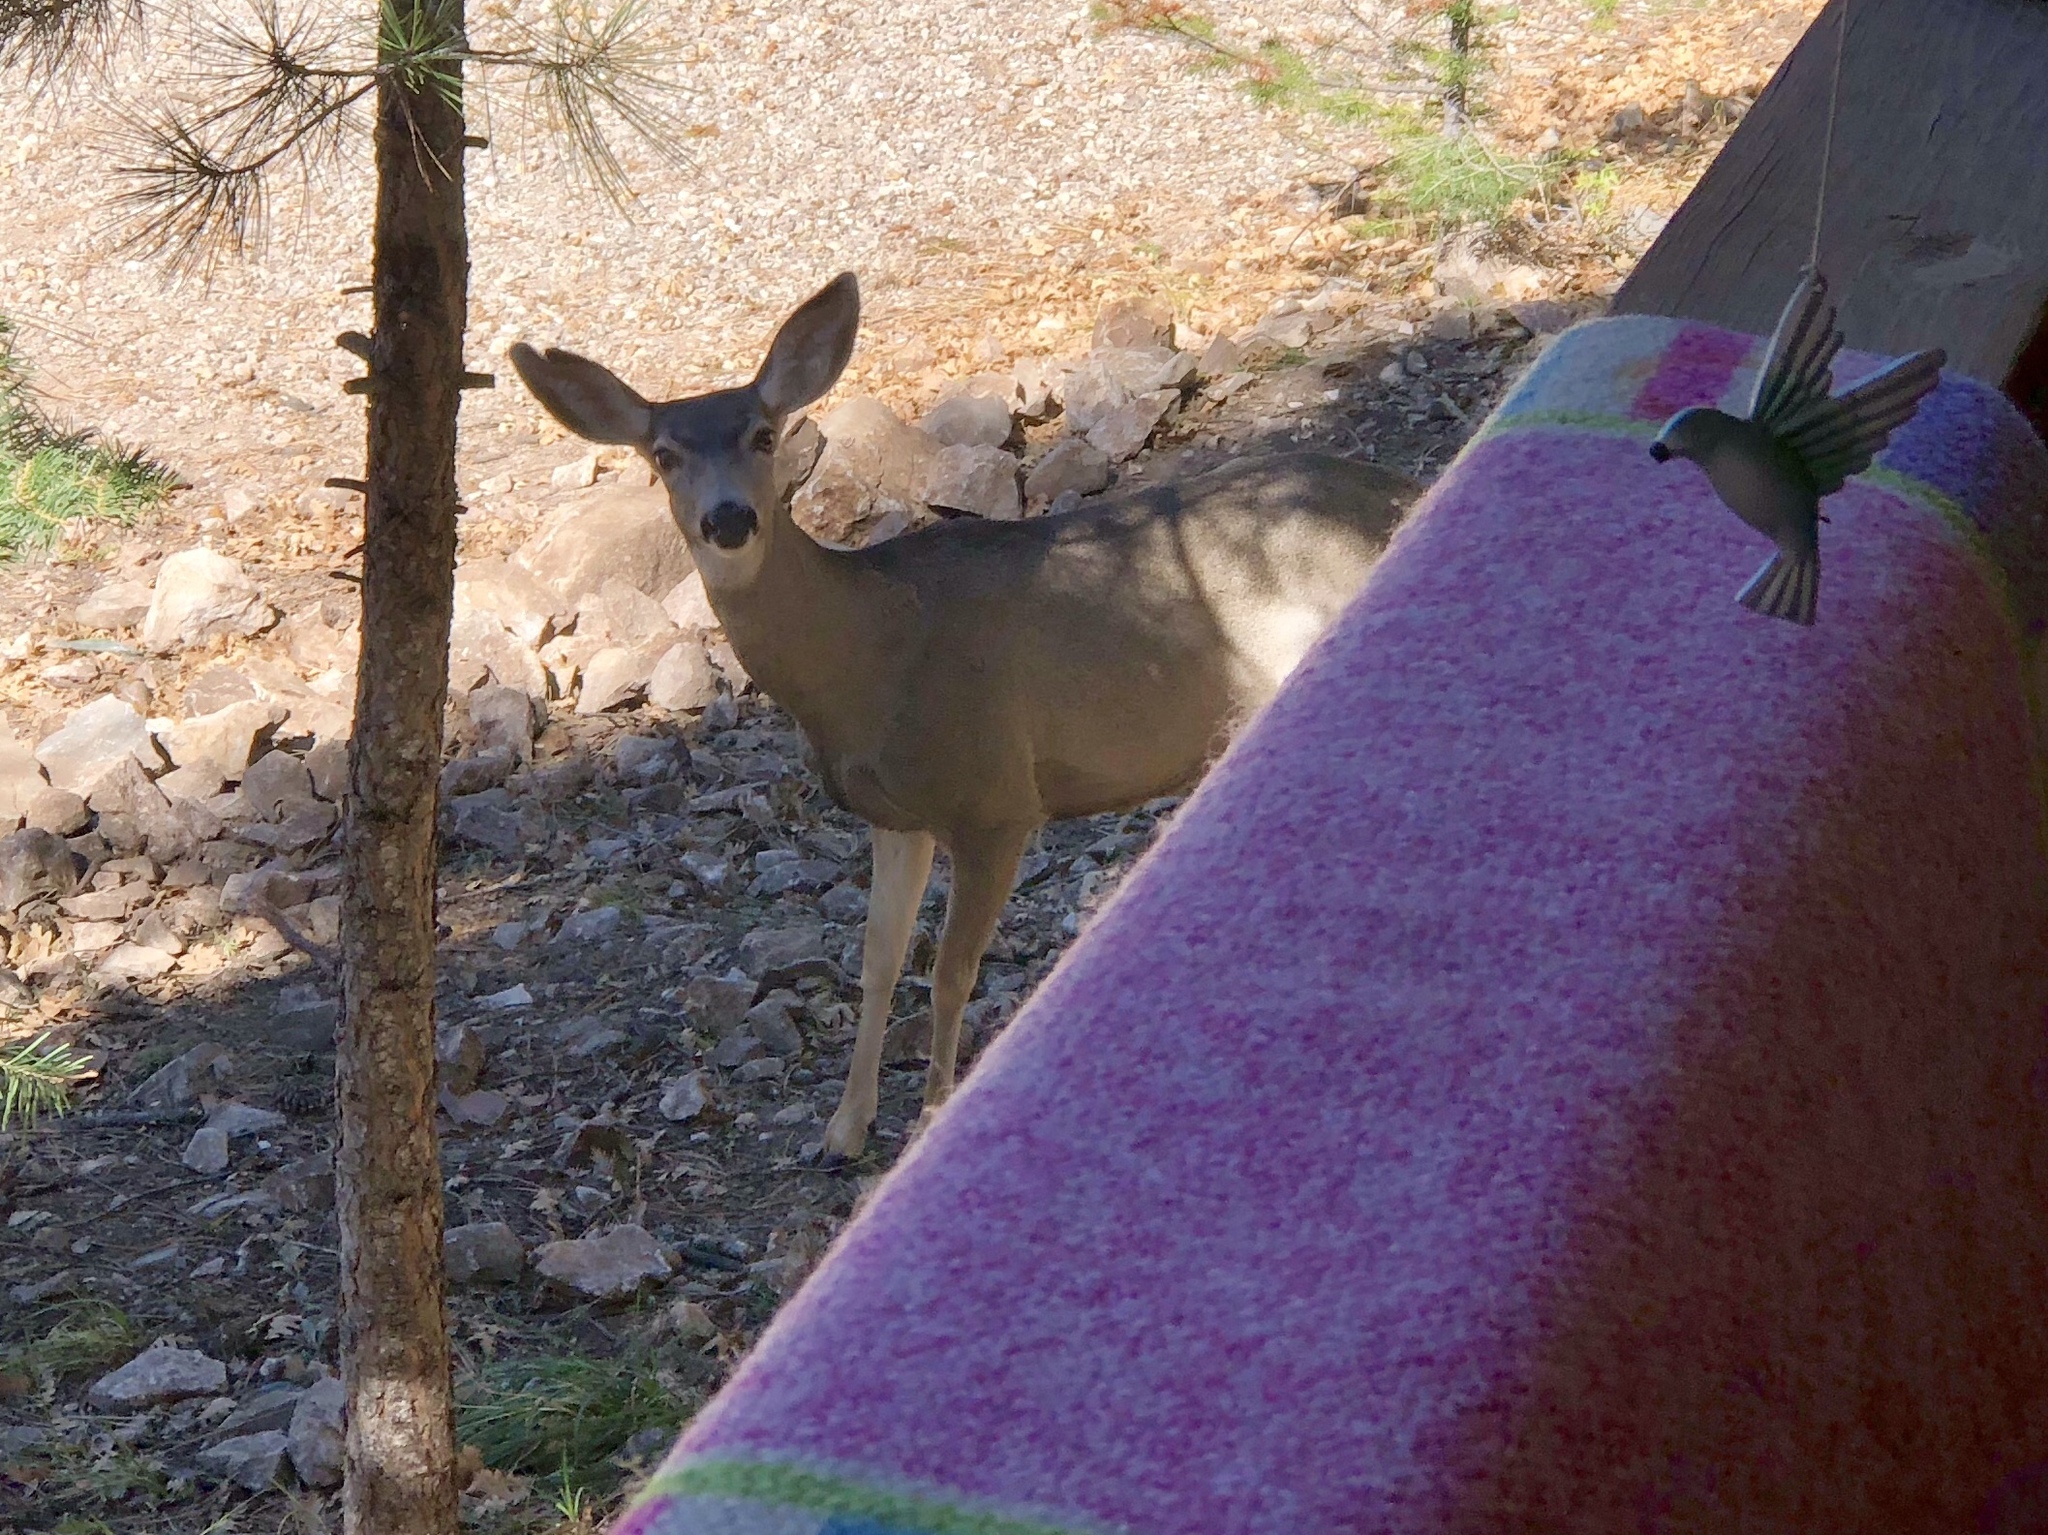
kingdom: Animalia
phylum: Chordata
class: Mammalia
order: Artiodactyla
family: Cervidae
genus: Odocoileus
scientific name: Odocoileus hemionus
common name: Mule deer
